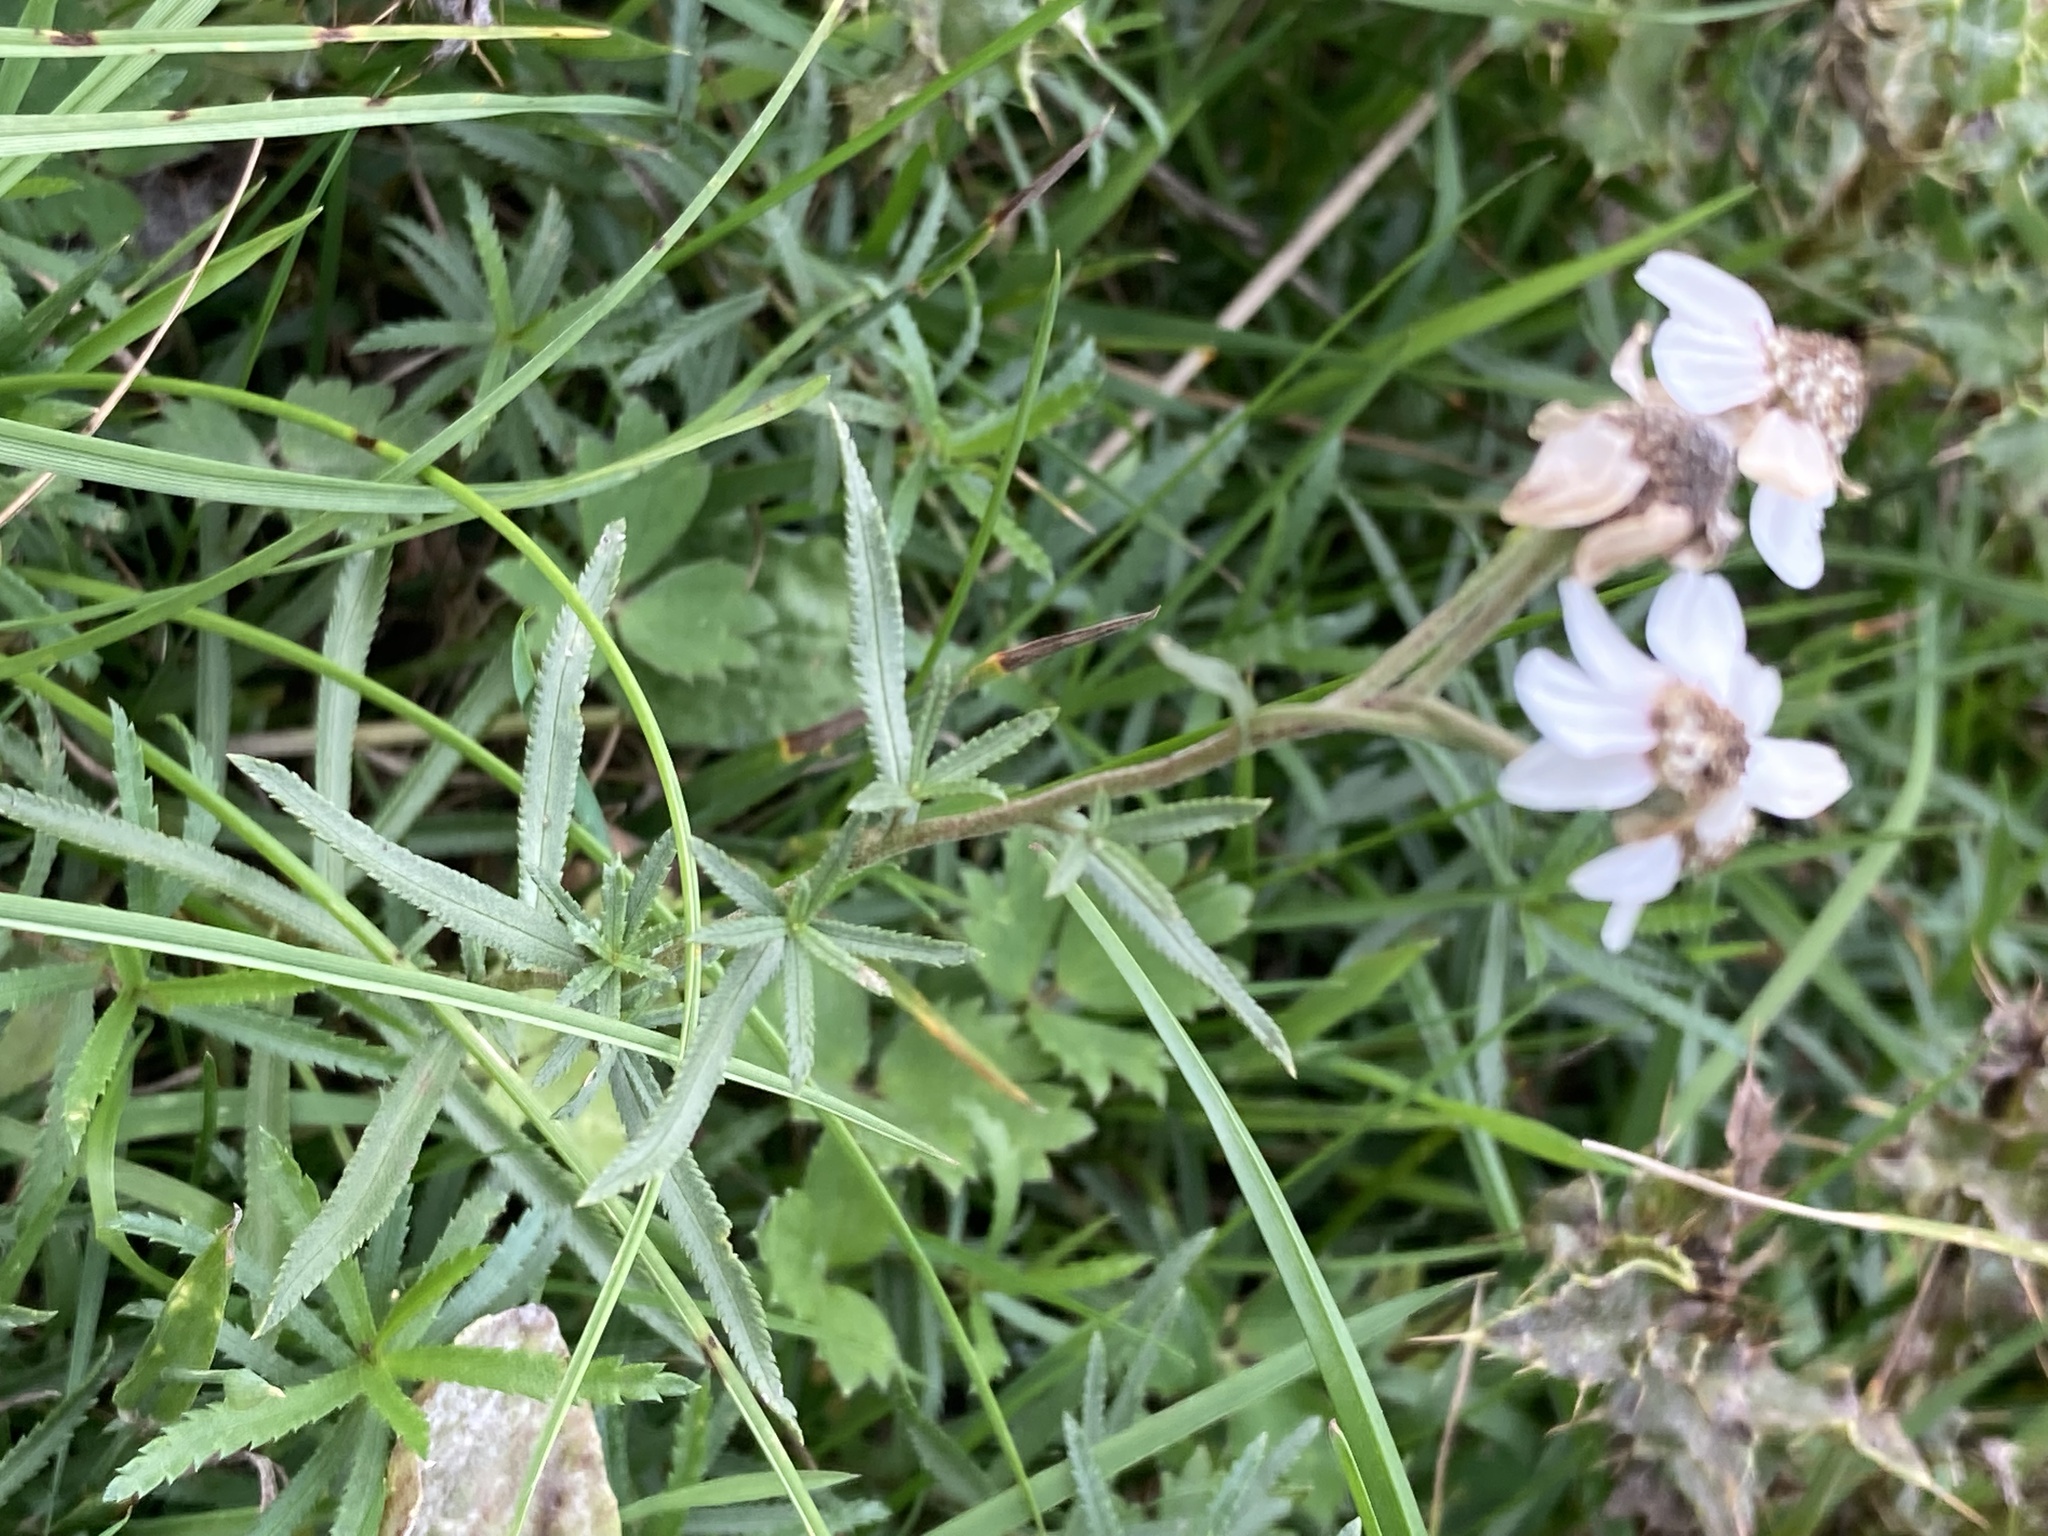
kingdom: Plantae
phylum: Tracheophyta
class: Magnoliopsida
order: Asterales
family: Asteraceae
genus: Achillea
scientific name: Achillea ptarmica
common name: Sneezeweed
